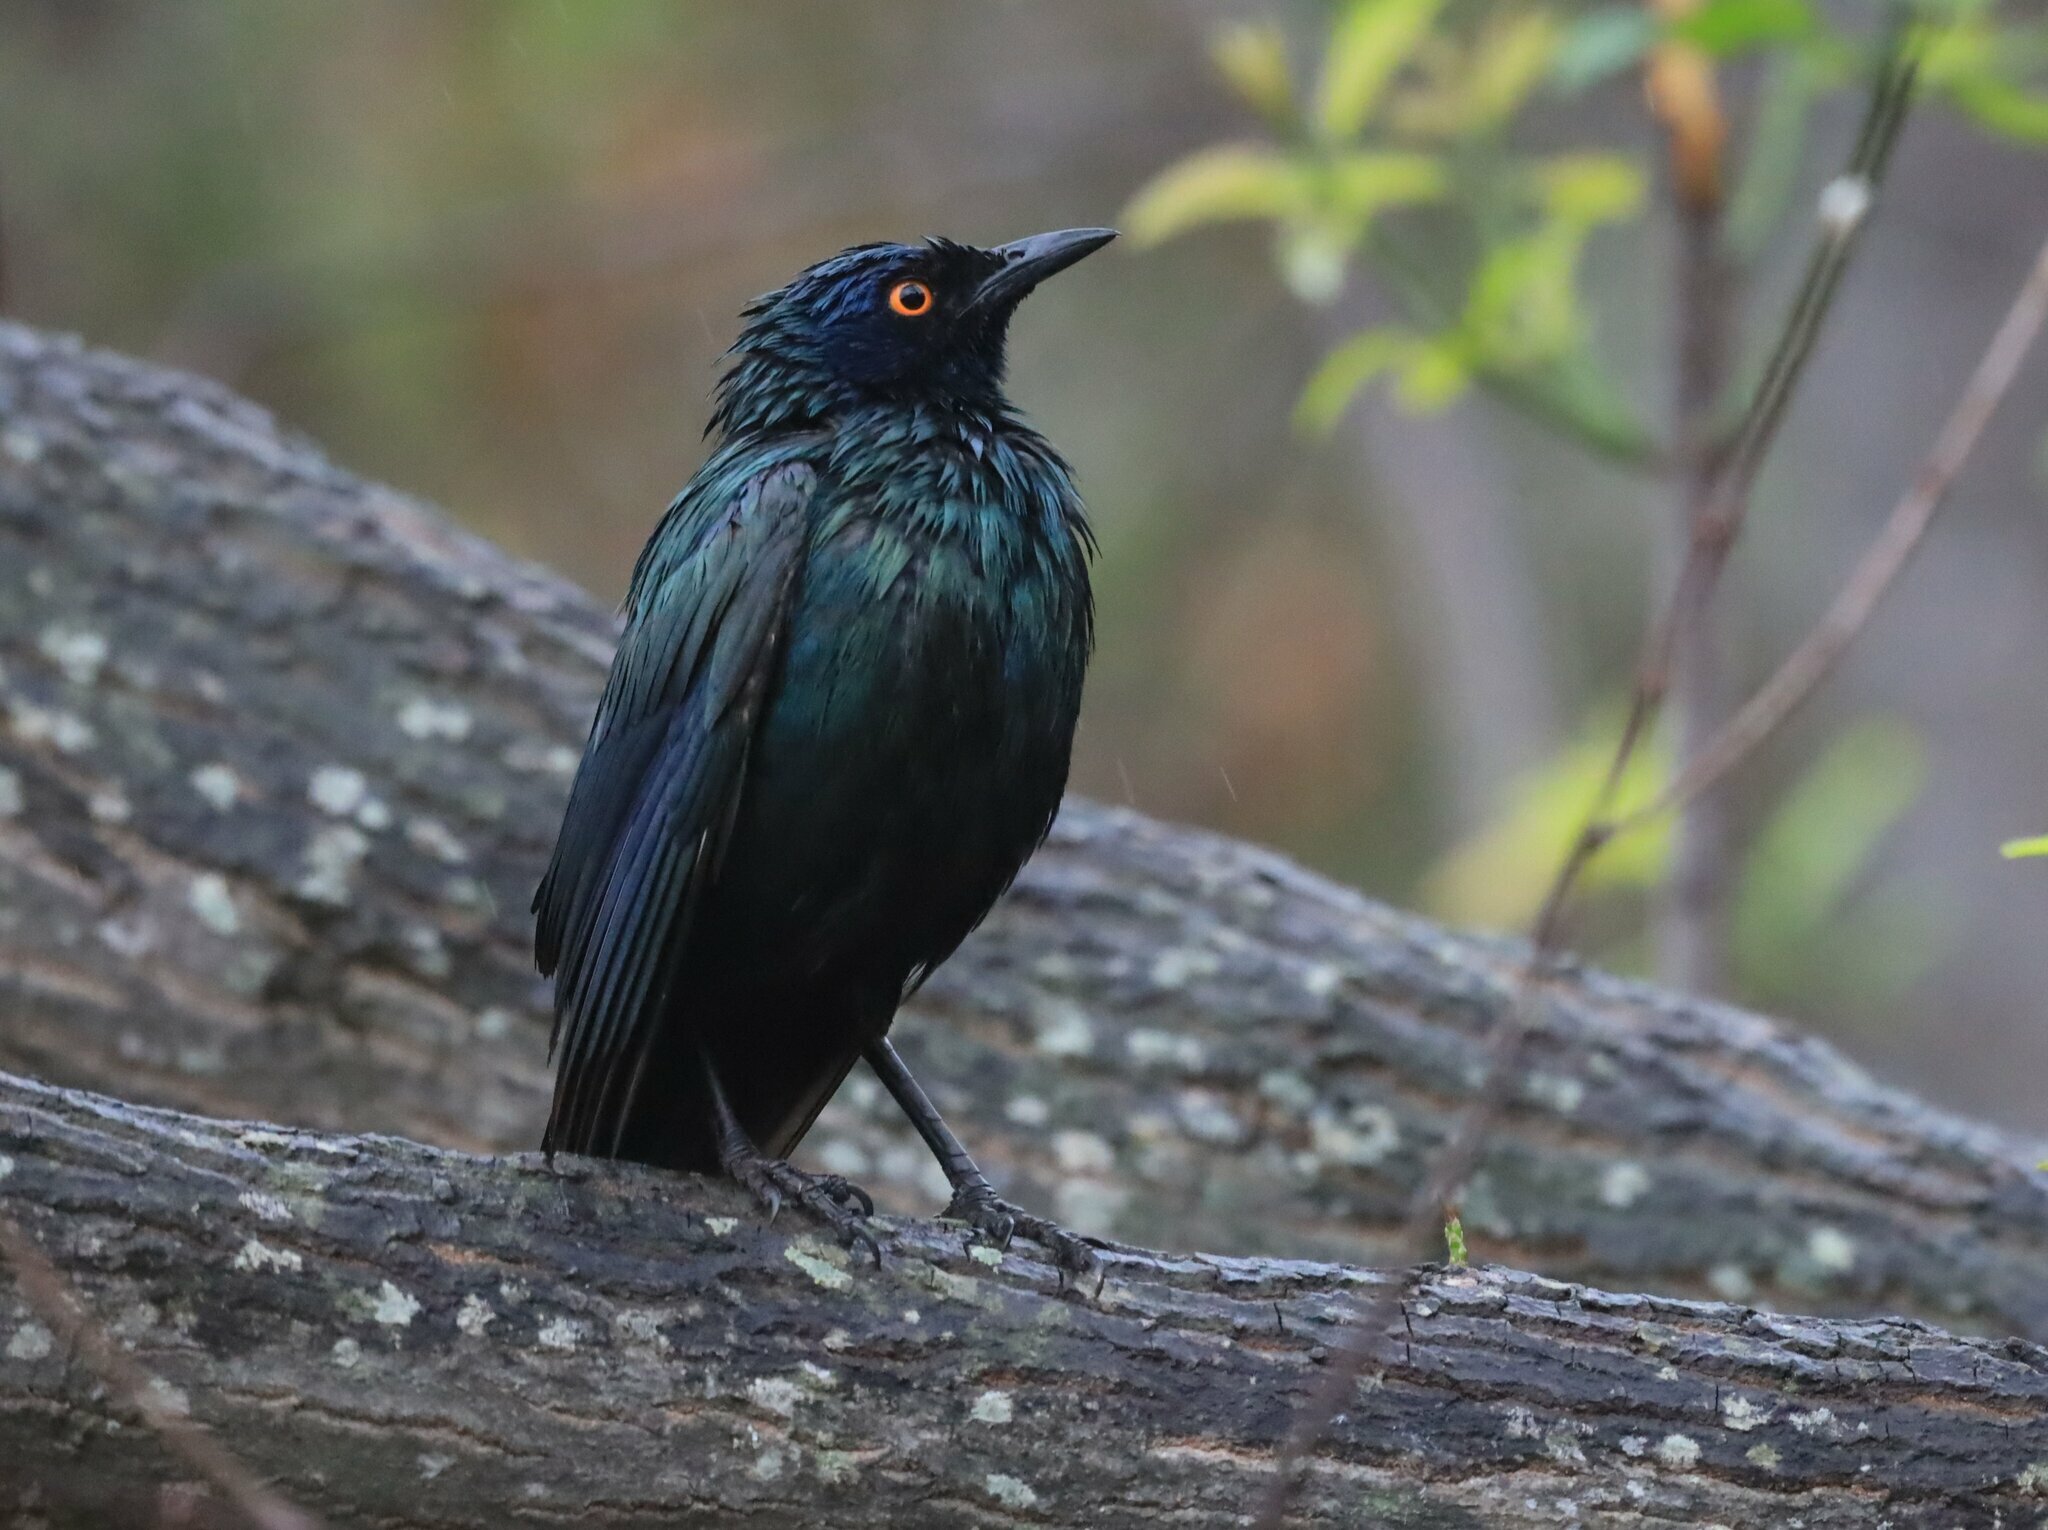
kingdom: Animalia
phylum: Chordata
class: Aves
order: Passeriformes
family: Sturnidae
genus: Lamprotornis
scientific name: Lamprotornis nitens
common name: Cape starling
